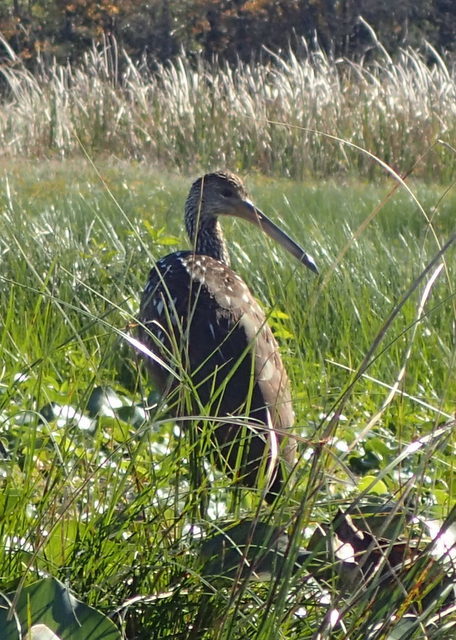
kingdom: Animalia
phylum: Chordata
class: Aves
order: Gruiformes
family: Aramidae
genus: Aramus
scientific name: Aramus guarauna
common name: Limpkin
